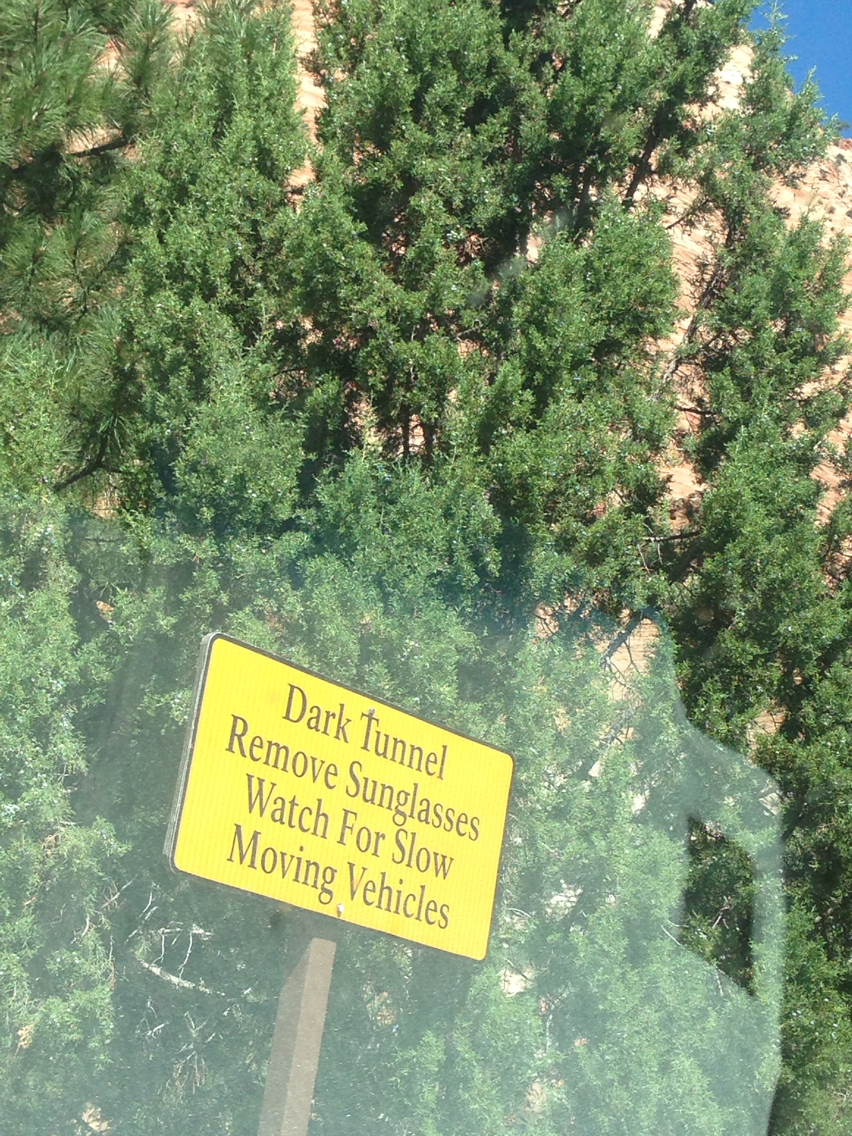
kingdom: Plantae
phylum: Tracheophyta
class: Pinopsida
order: Pinales
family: Cupressaceae
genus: Juniperus
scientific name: Juniperus osteosperma
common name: Utah juniper
